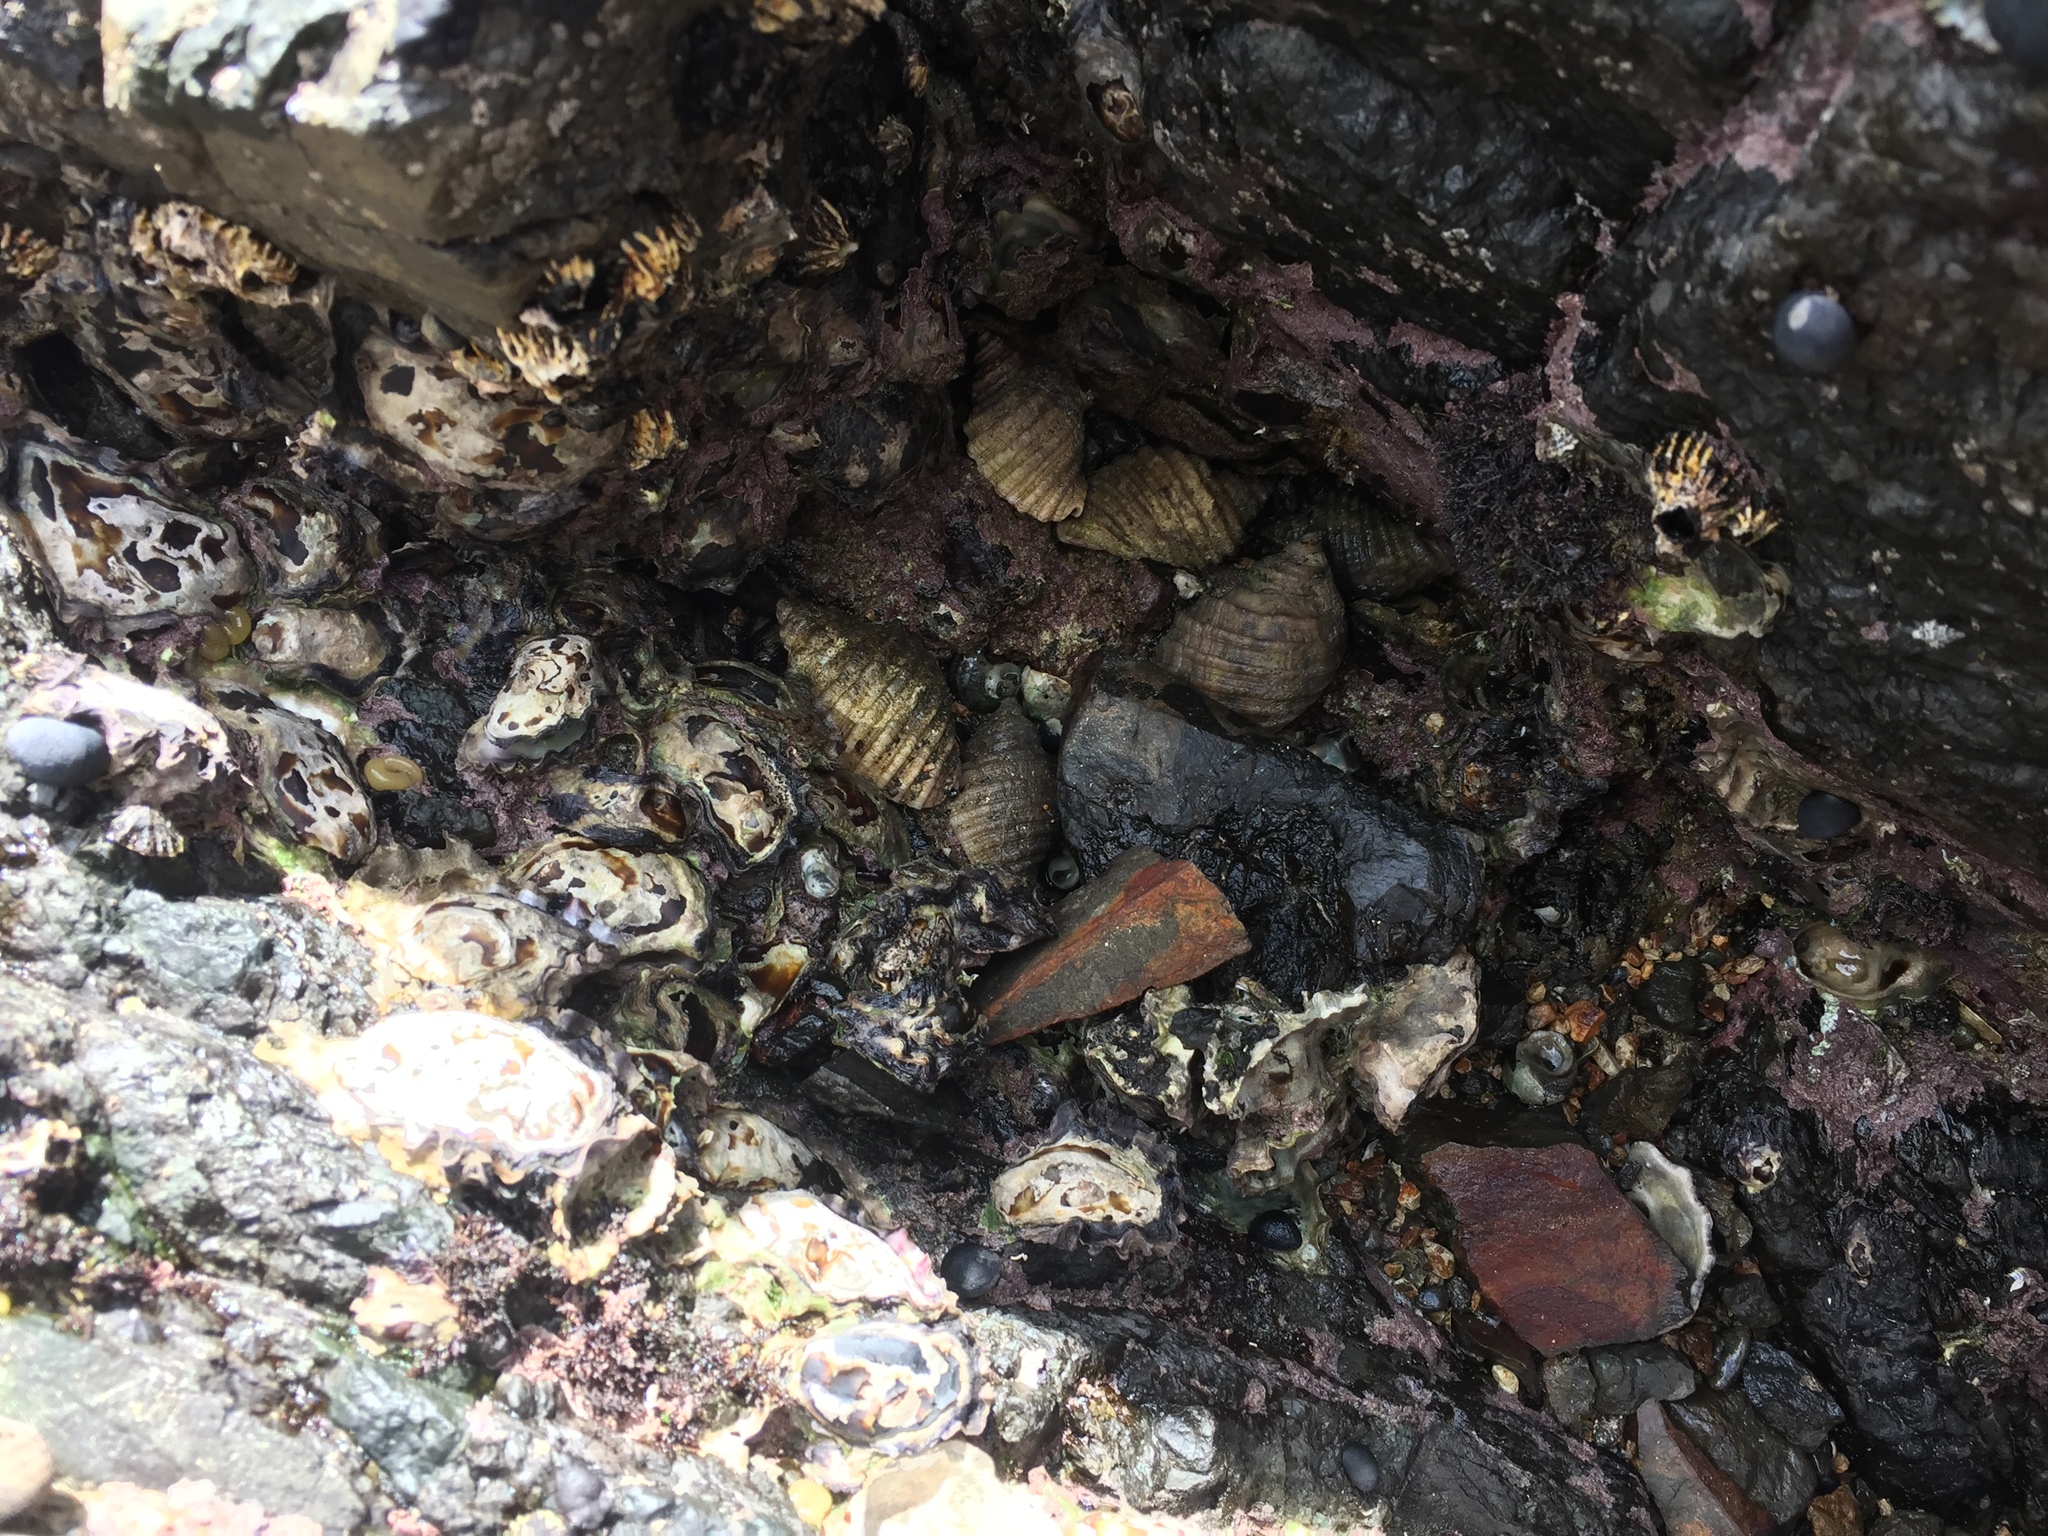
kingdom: Animalia
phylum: Mollusca
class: Gastropoda
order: Neogastropoda
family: Muricidae
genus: Dicathais
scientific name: Dicathais orbita
